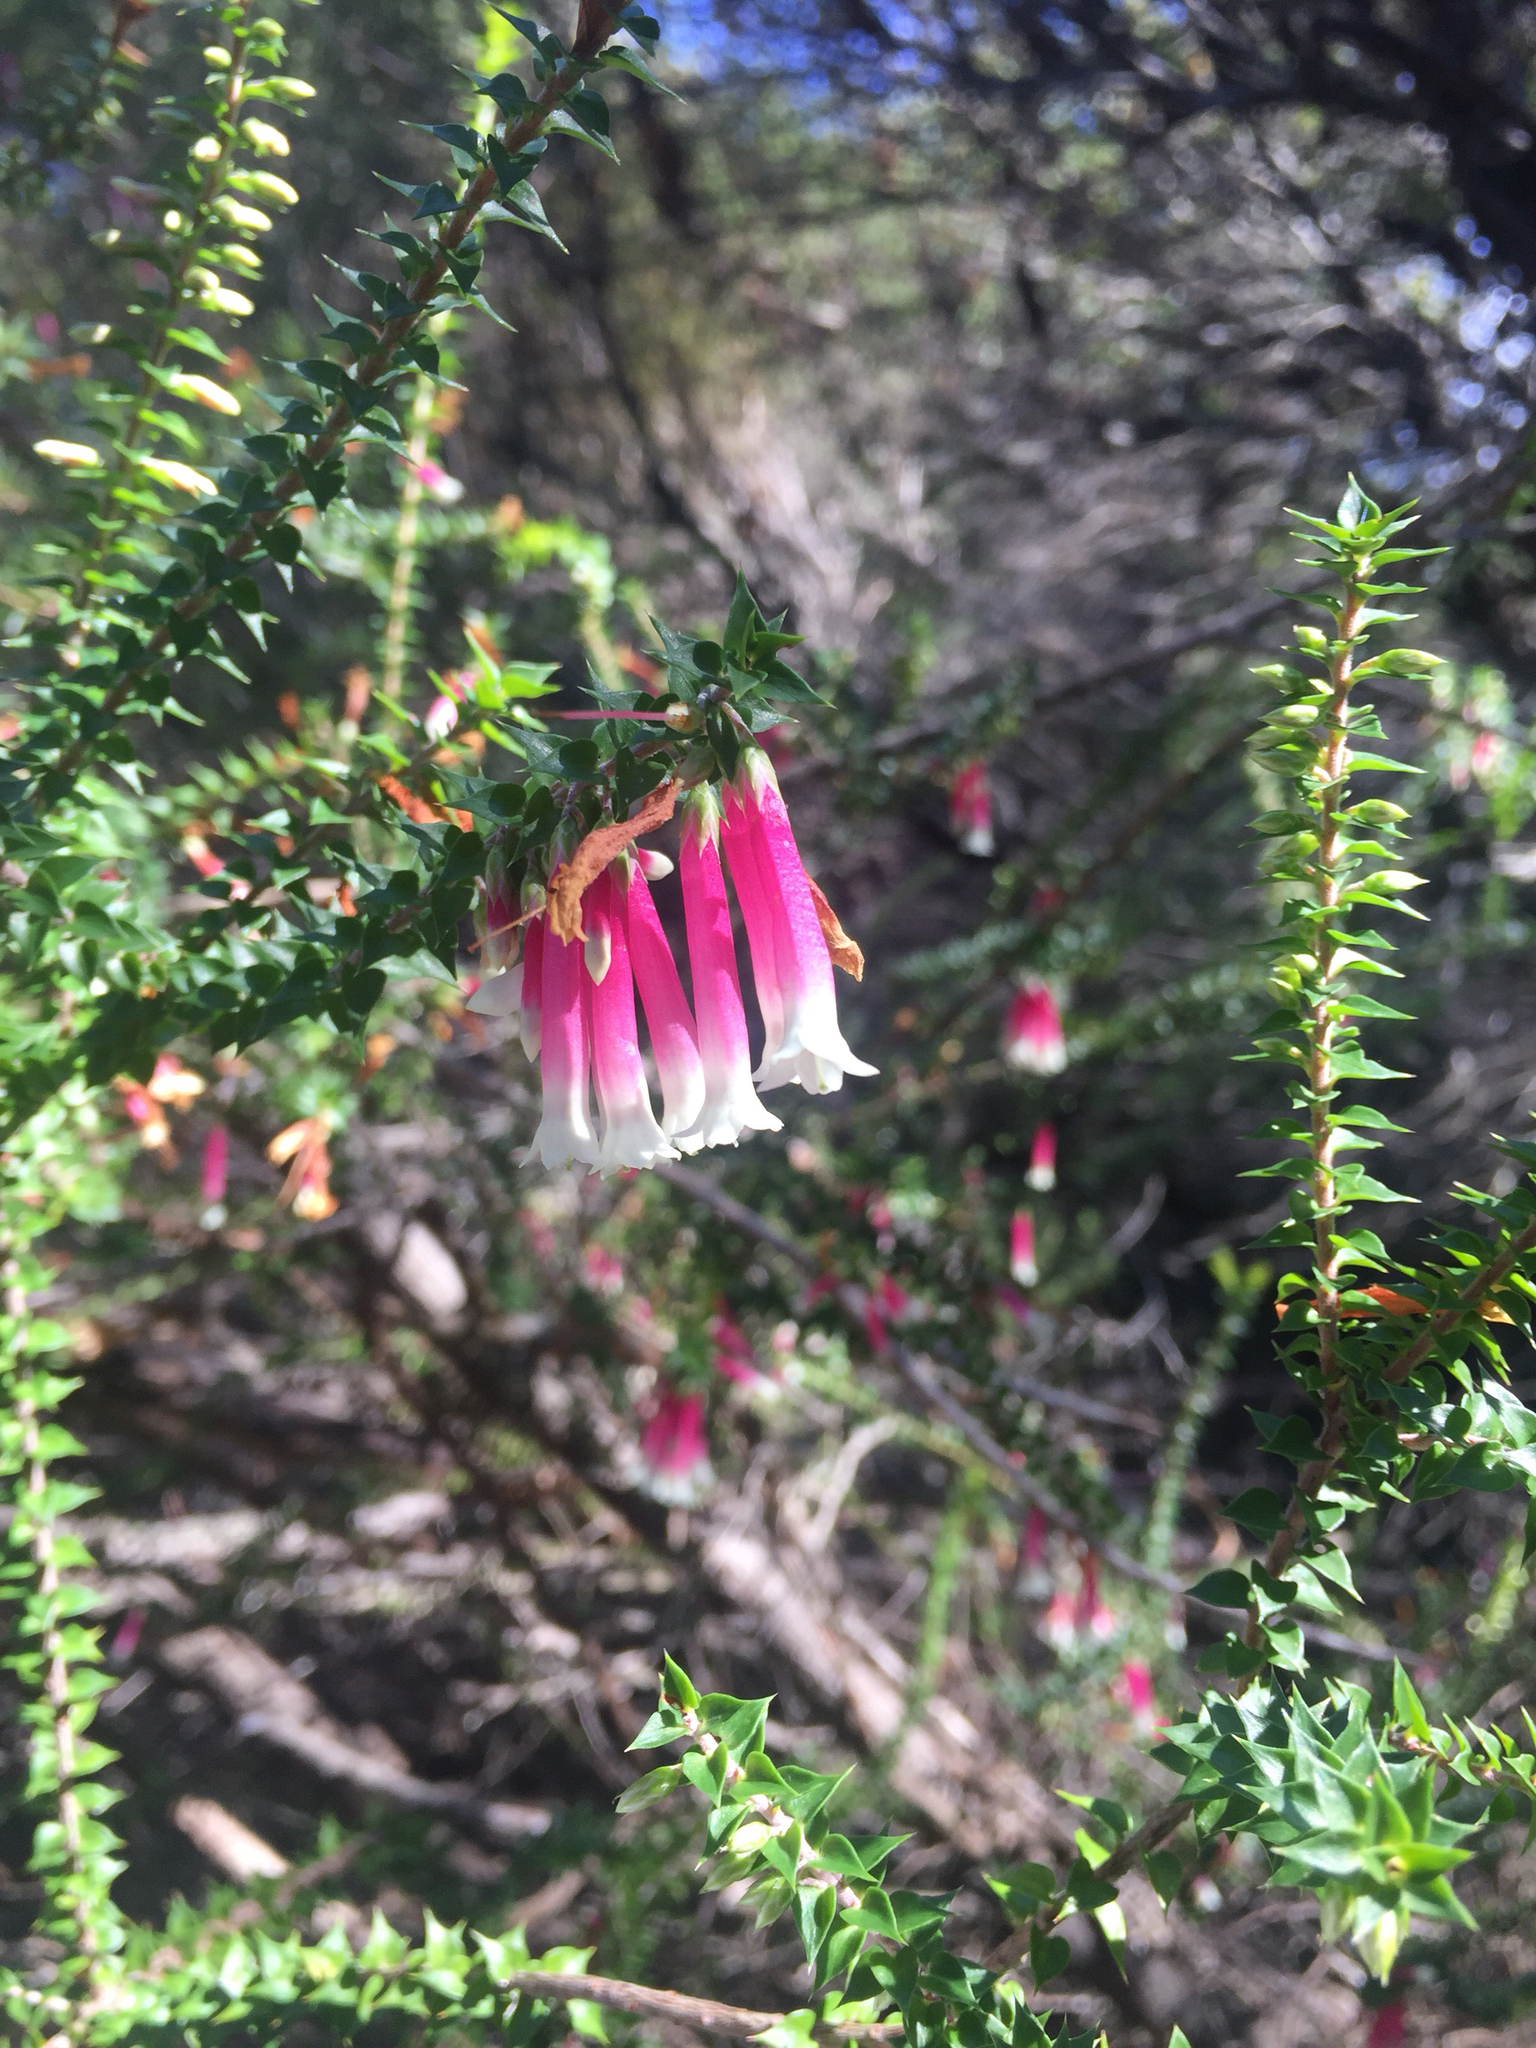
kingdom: Plantae
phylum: Tracheophyta
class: Magnoliopsida
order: Ericales
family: Ericaceae
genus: Epacris
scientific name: Epacris longiflora
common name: Fuchsia-heath
